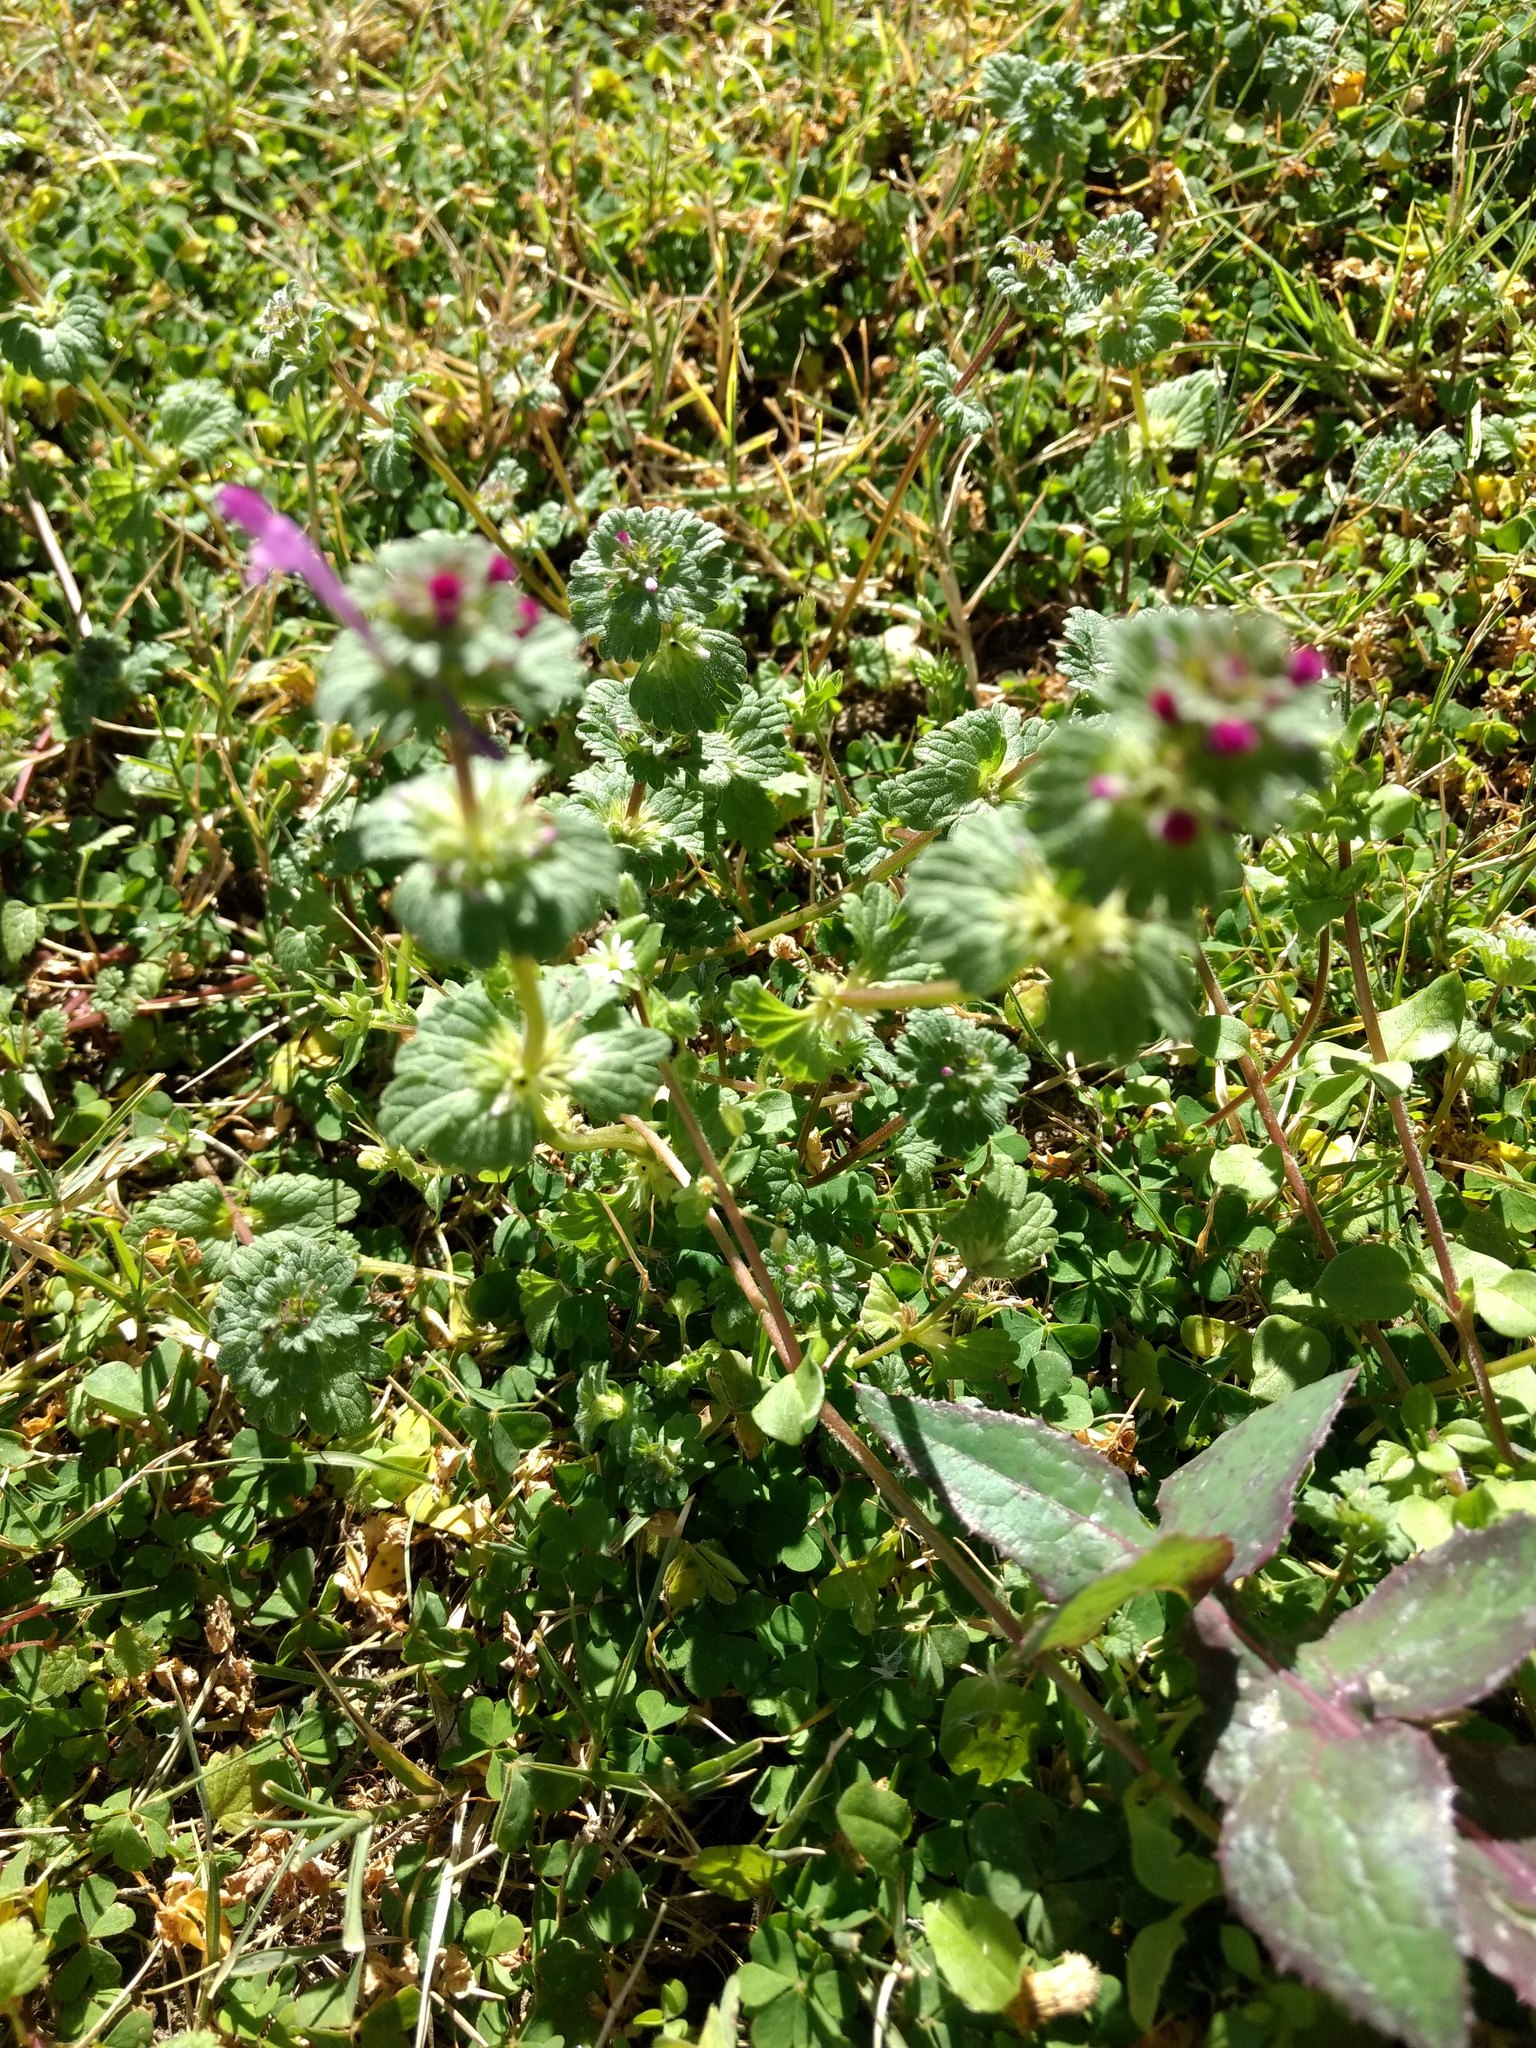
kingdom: Plantae
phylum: Tracheophyta
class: Magnoliopsida
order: Lamiales
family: Lamiaceae
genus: Lamium
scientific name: Lamium amplexicaule
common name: Henbit dead-nettle
